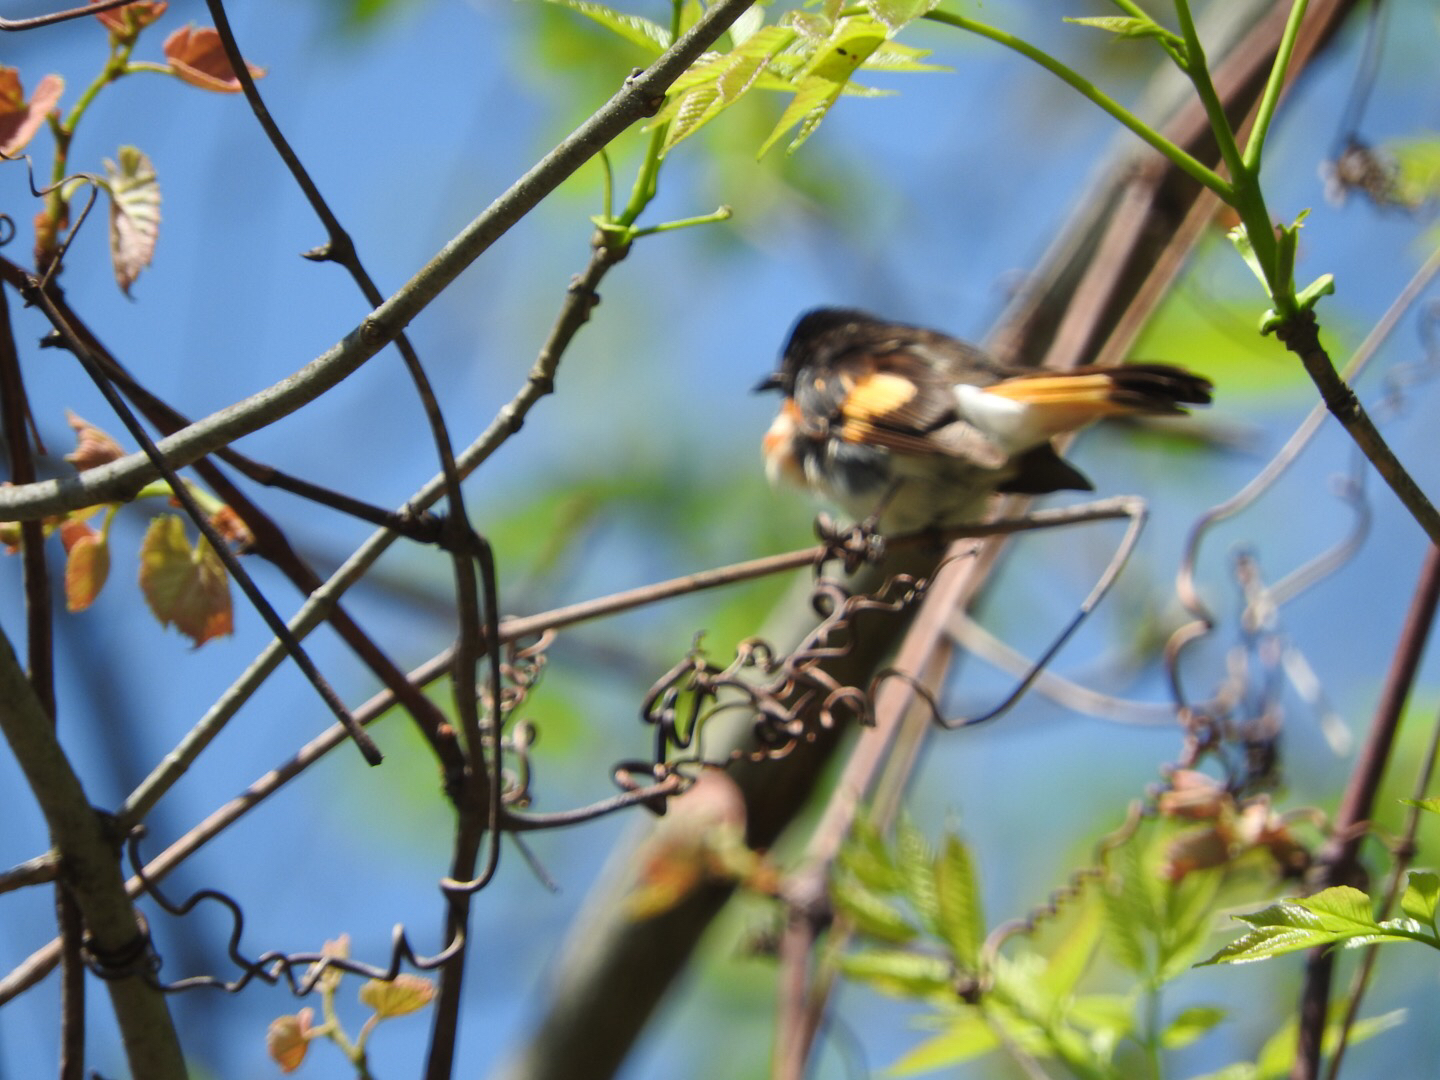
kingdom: Animalia
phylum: Chordata
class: Aves
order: Passeriformes
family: Parulidae
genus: Setophaga
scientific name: Setophaga ruticilla
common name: American redstart
